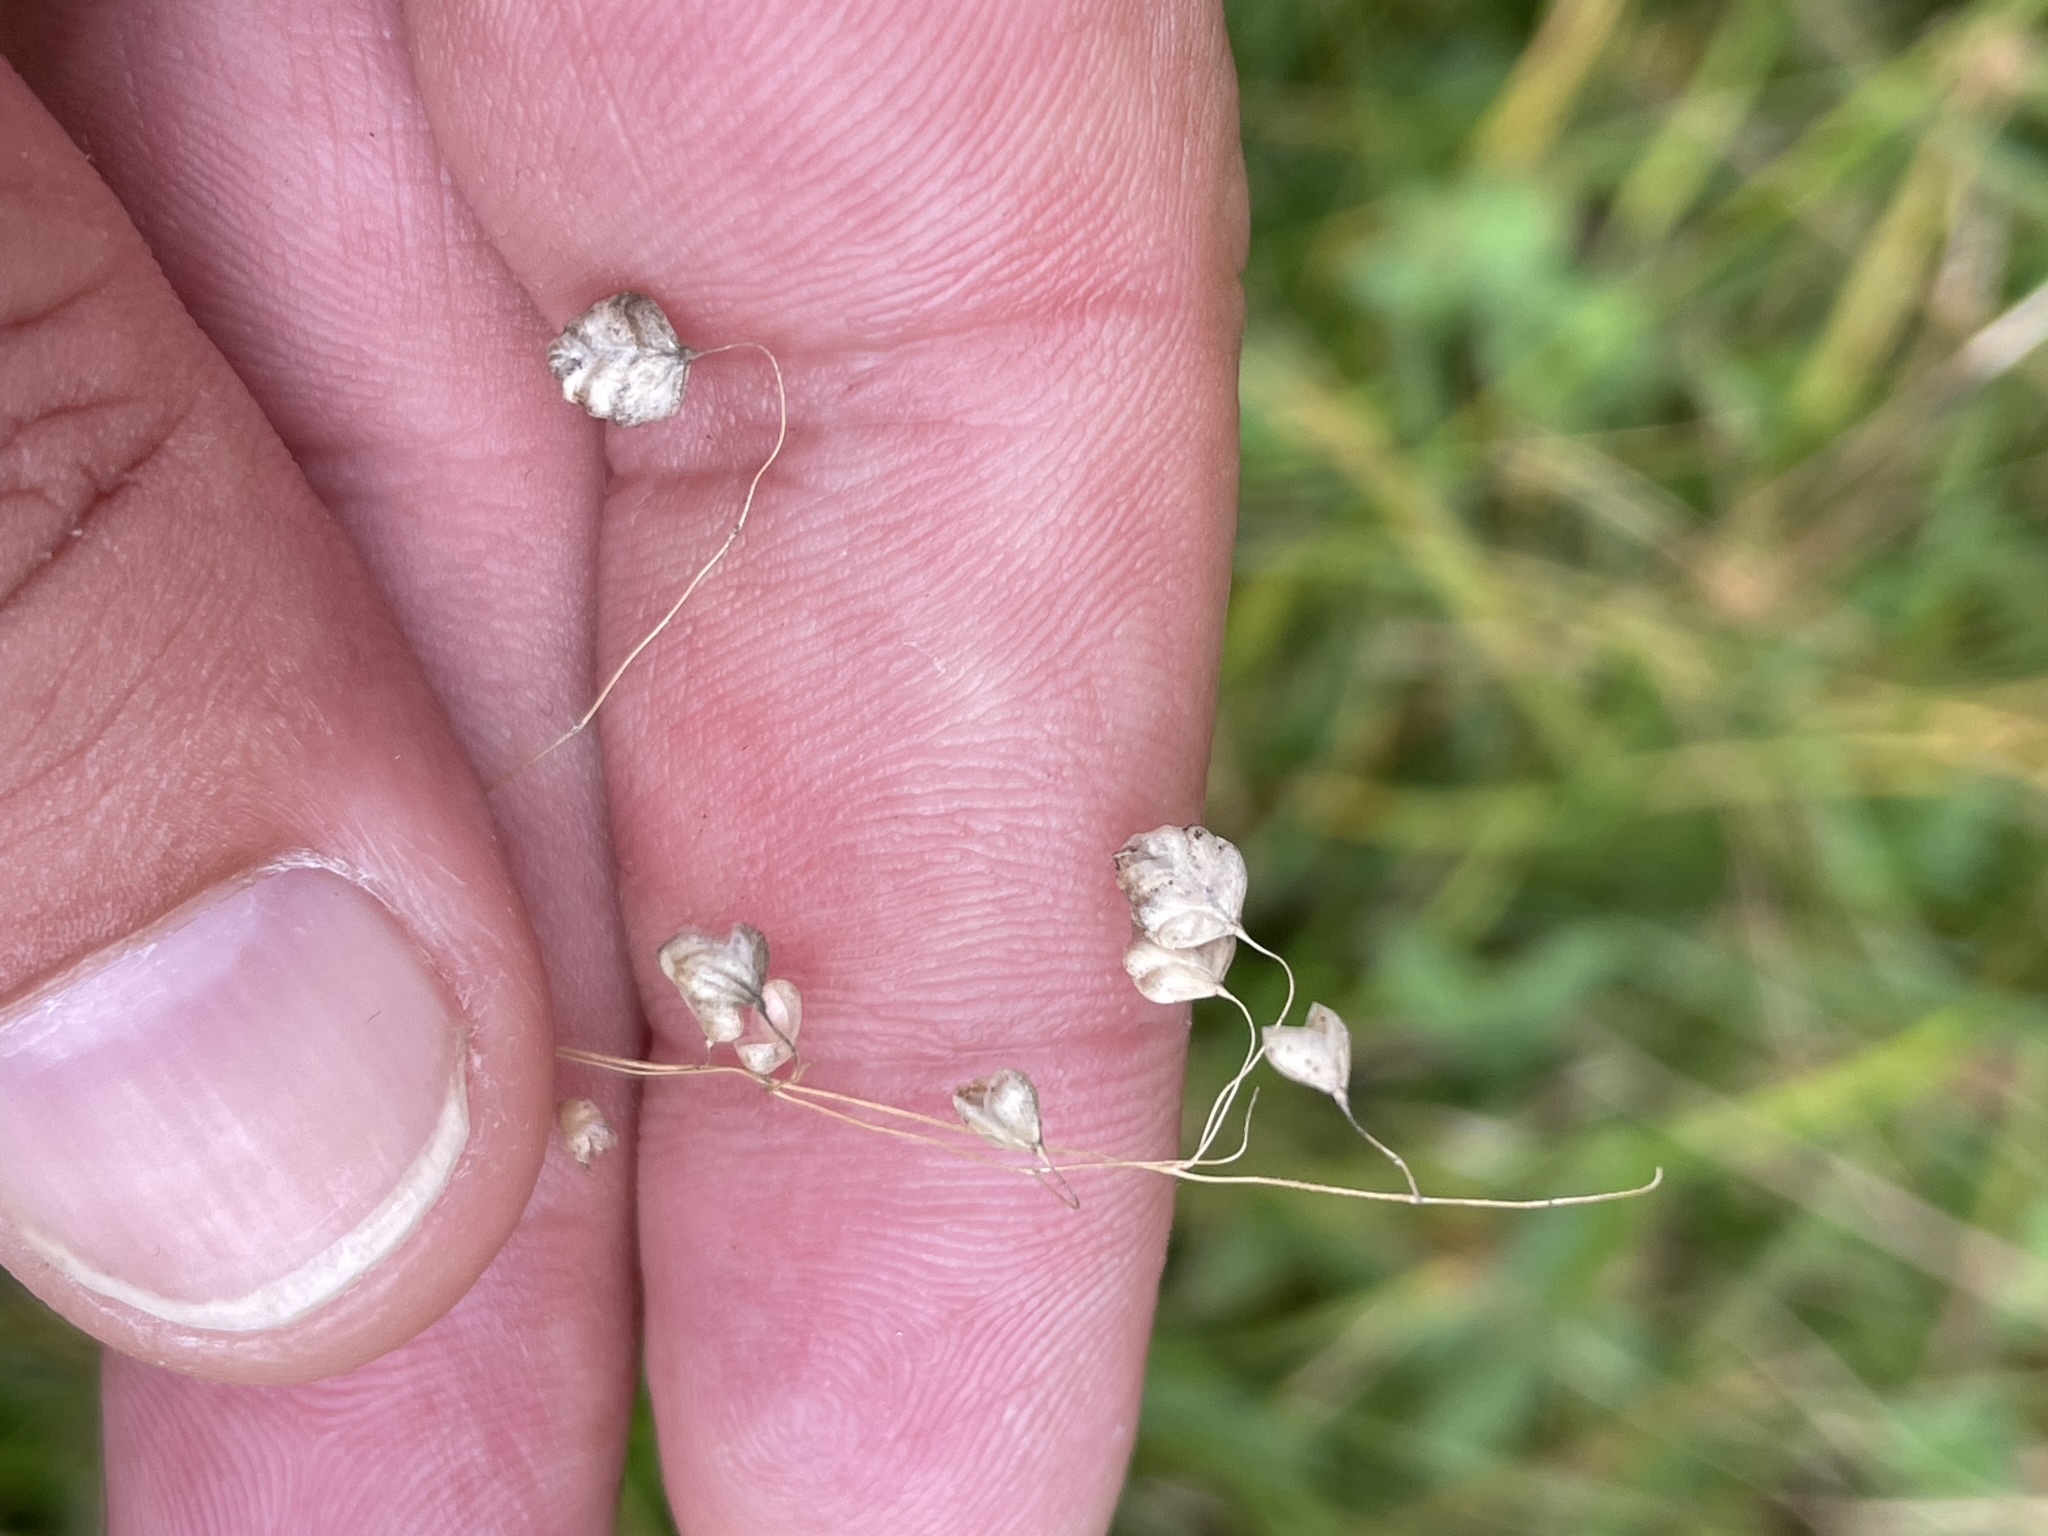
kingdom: Plantae
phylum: Tracheophyta
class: Liliopsida
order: Poales
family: Poaceae
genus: Briza
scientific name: Briza media
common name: Quaking grass
